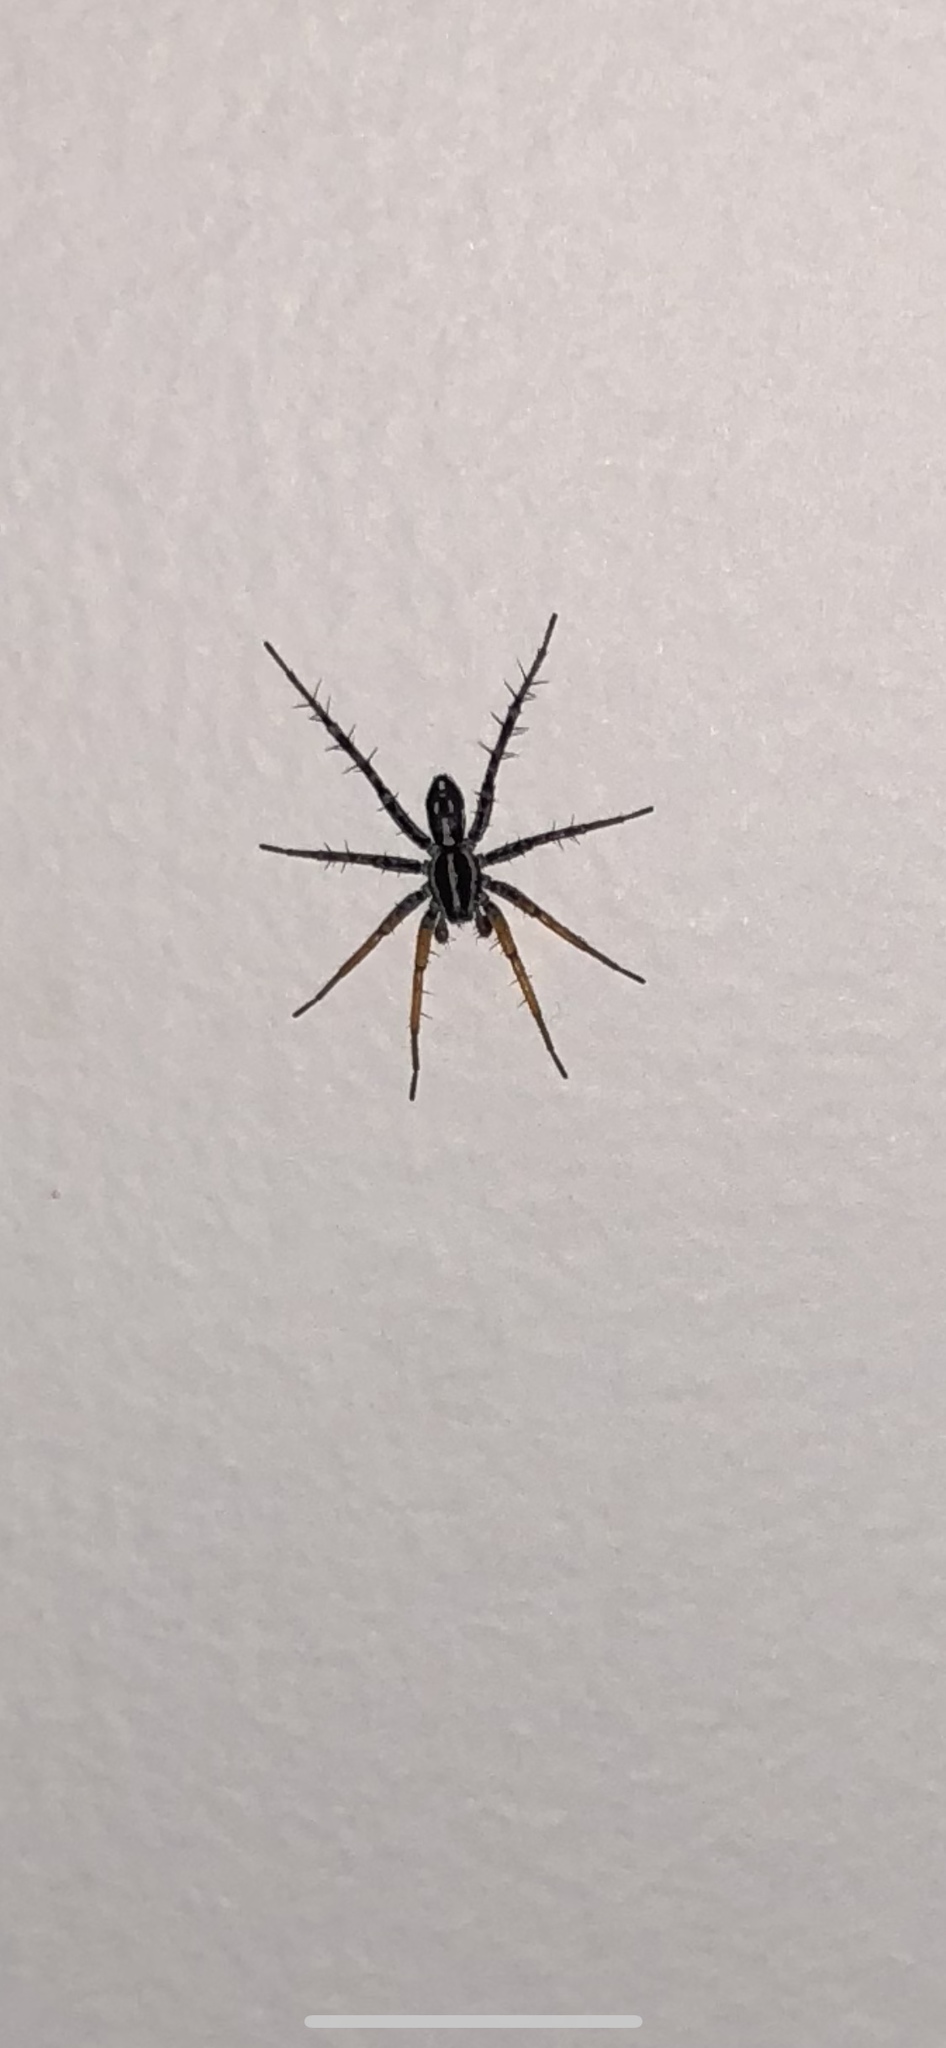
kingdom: Animalia
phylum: Arthropoda
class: Arachnida
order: Araneae
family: Corinnidae
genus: Nyssus
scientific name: Nyssus coloripes
